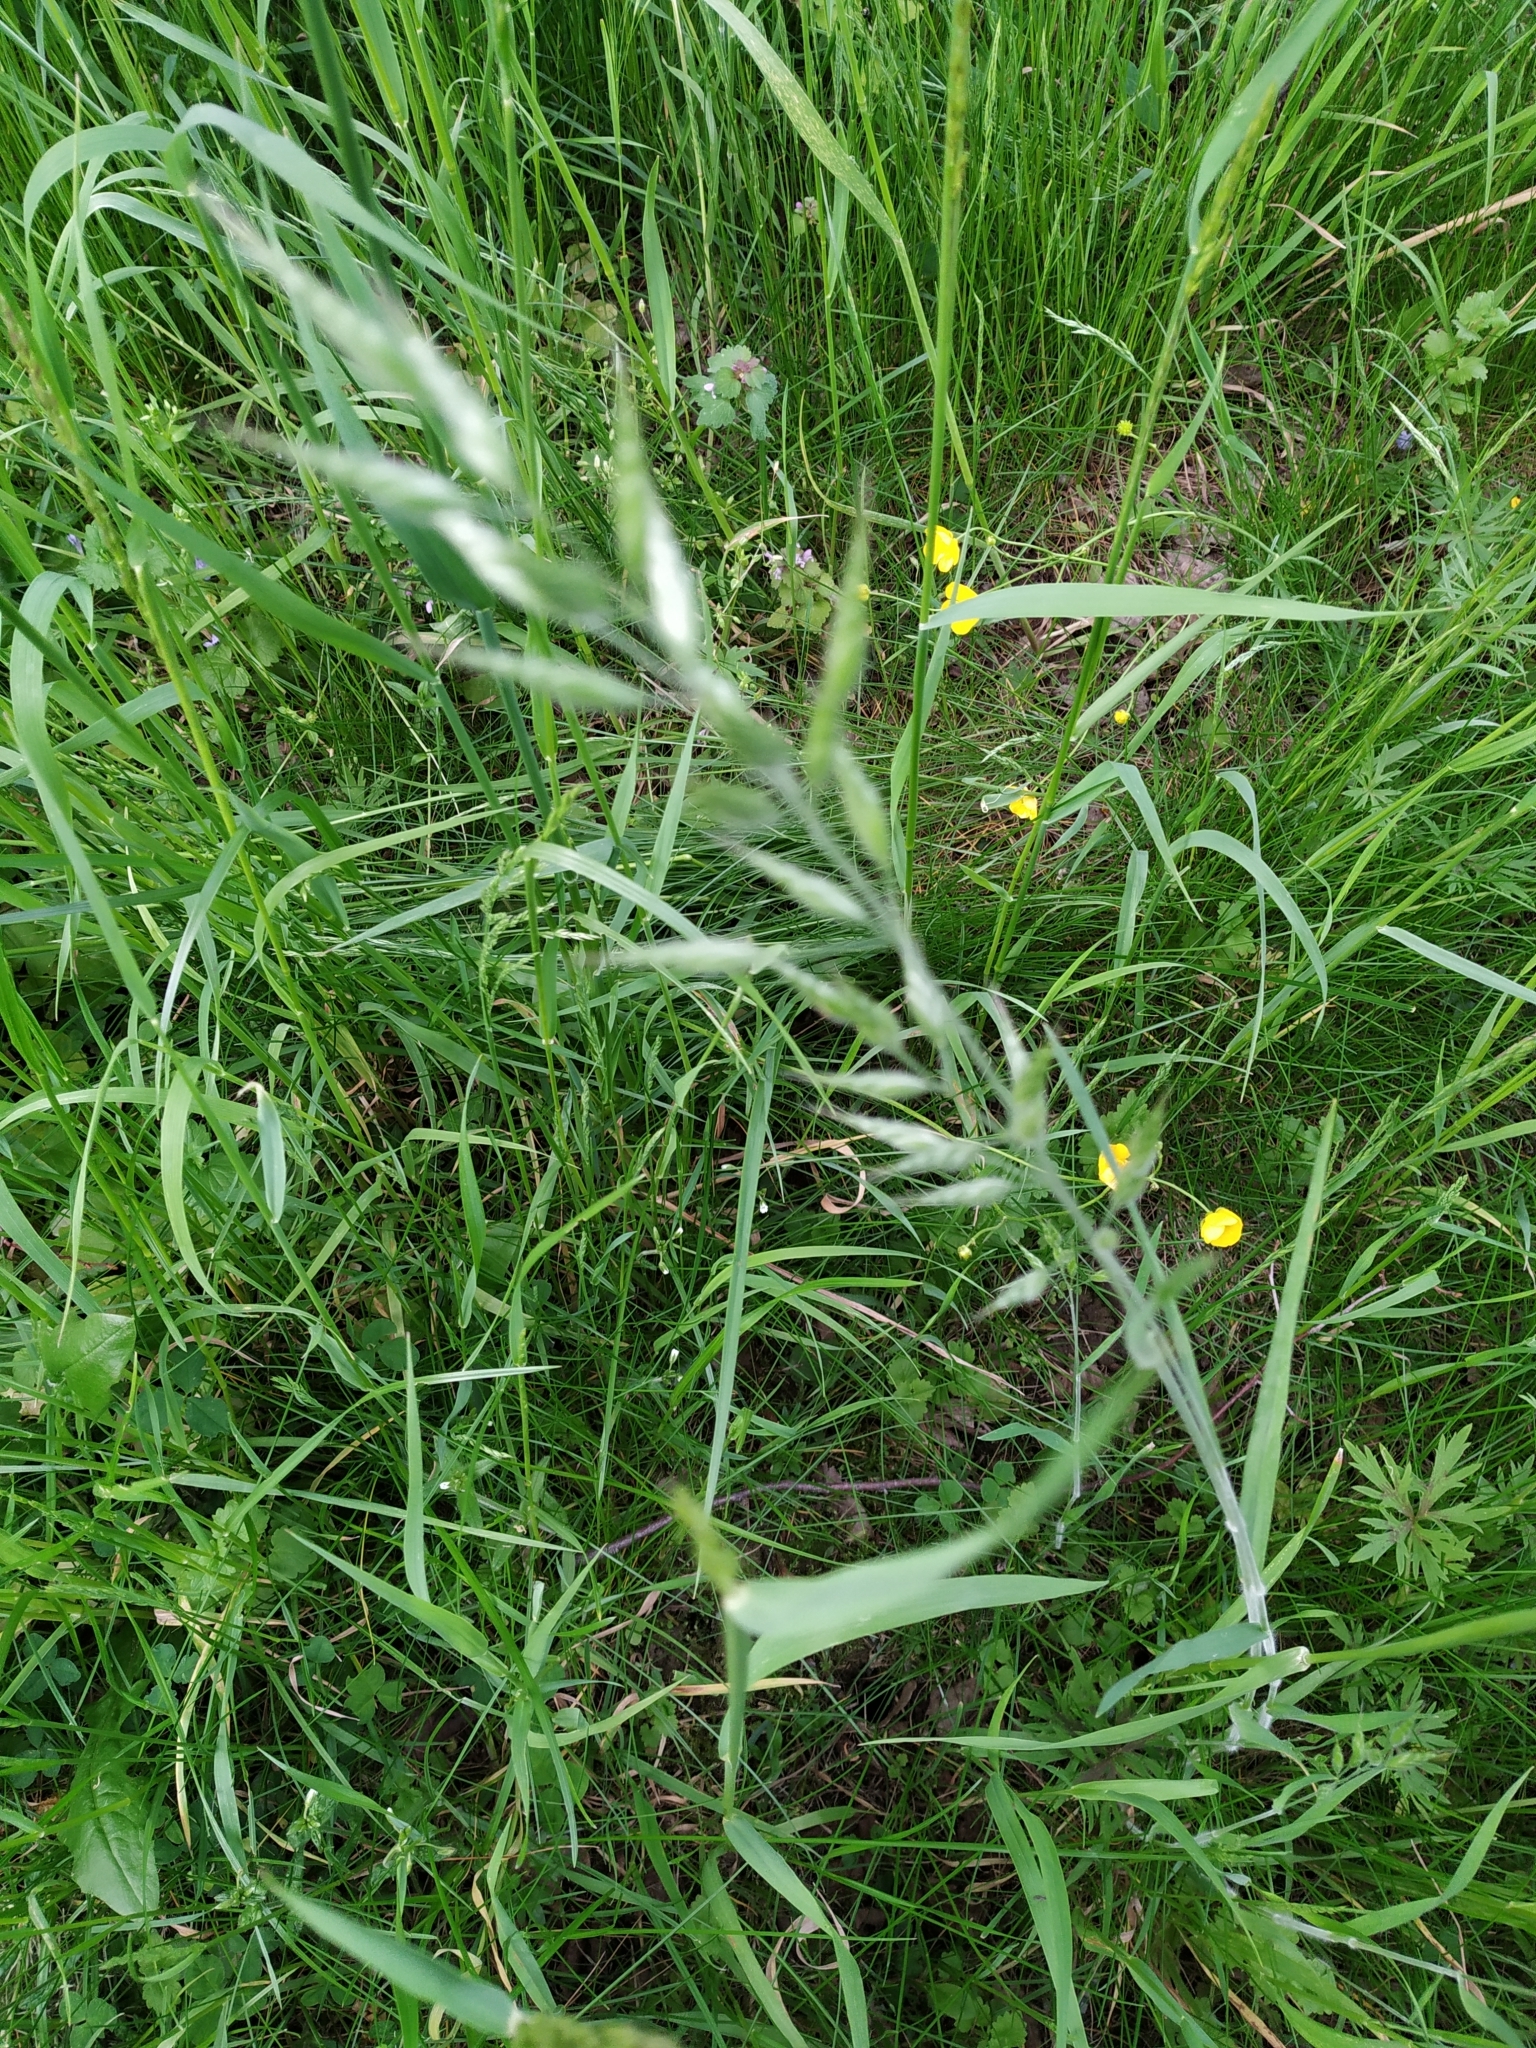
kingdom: Plantae
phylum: Tracheophyta
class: Liliopsida
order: Poales
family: Poaceae
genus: Bromus
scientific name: Bromus hordeaceus
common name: Soft brome
